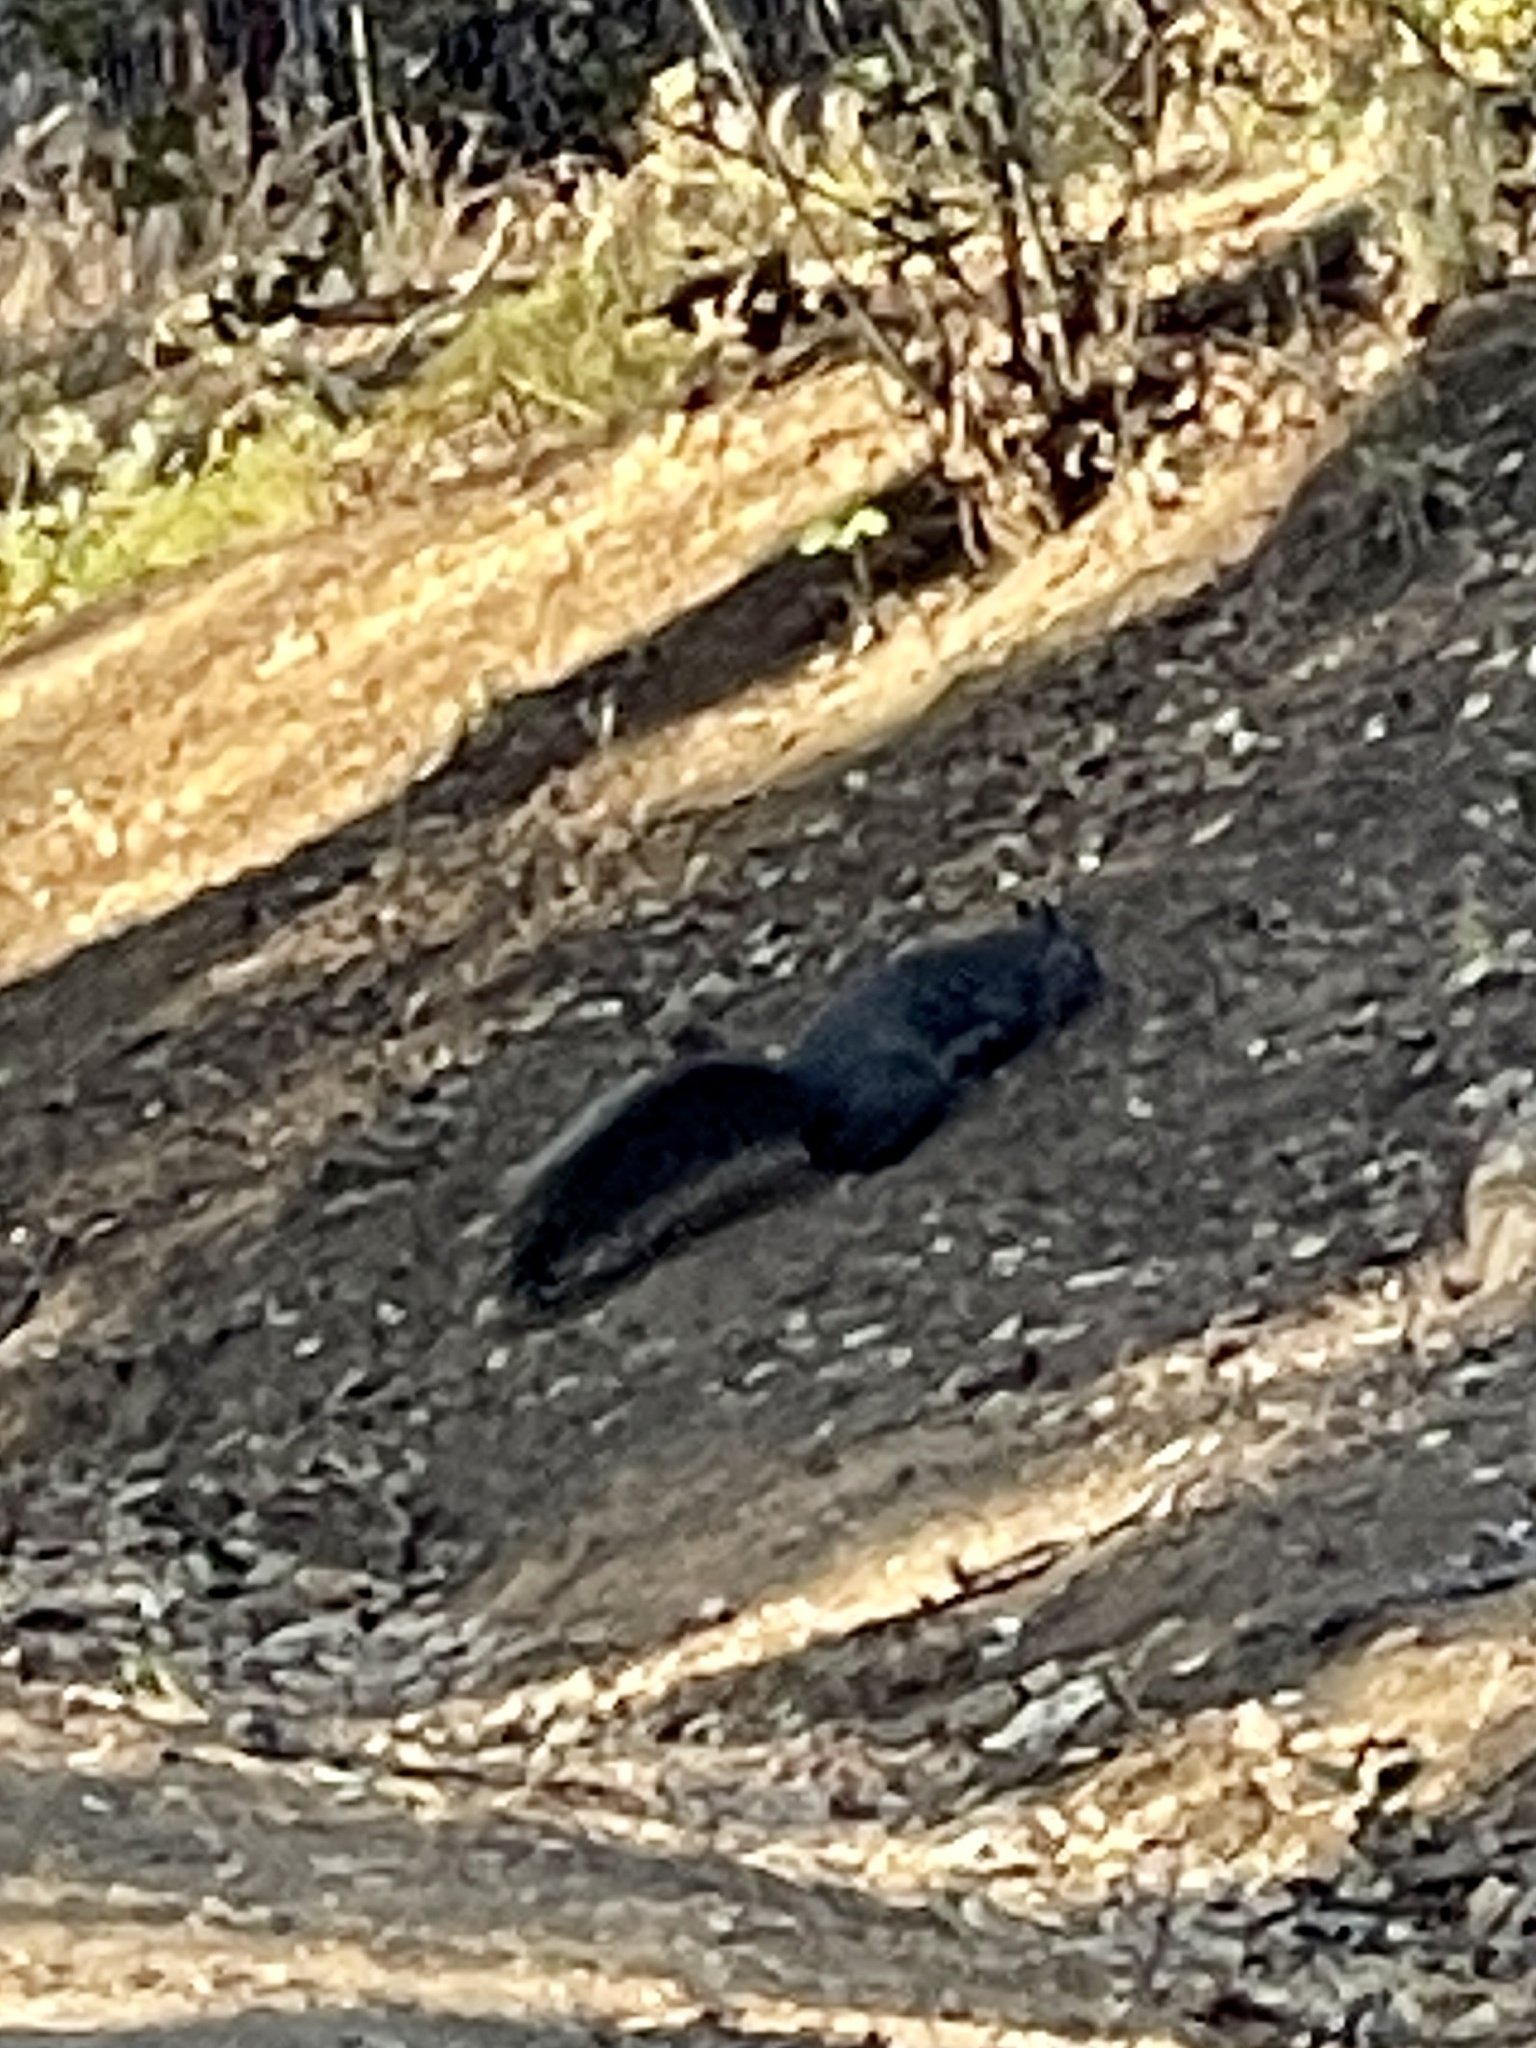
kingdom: Animalia
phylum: Chordata
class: Mammalia
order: Rodentia
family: Sciuridae
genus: Sciurus
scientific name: Sciurus griseus
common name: Western gray squirrel
